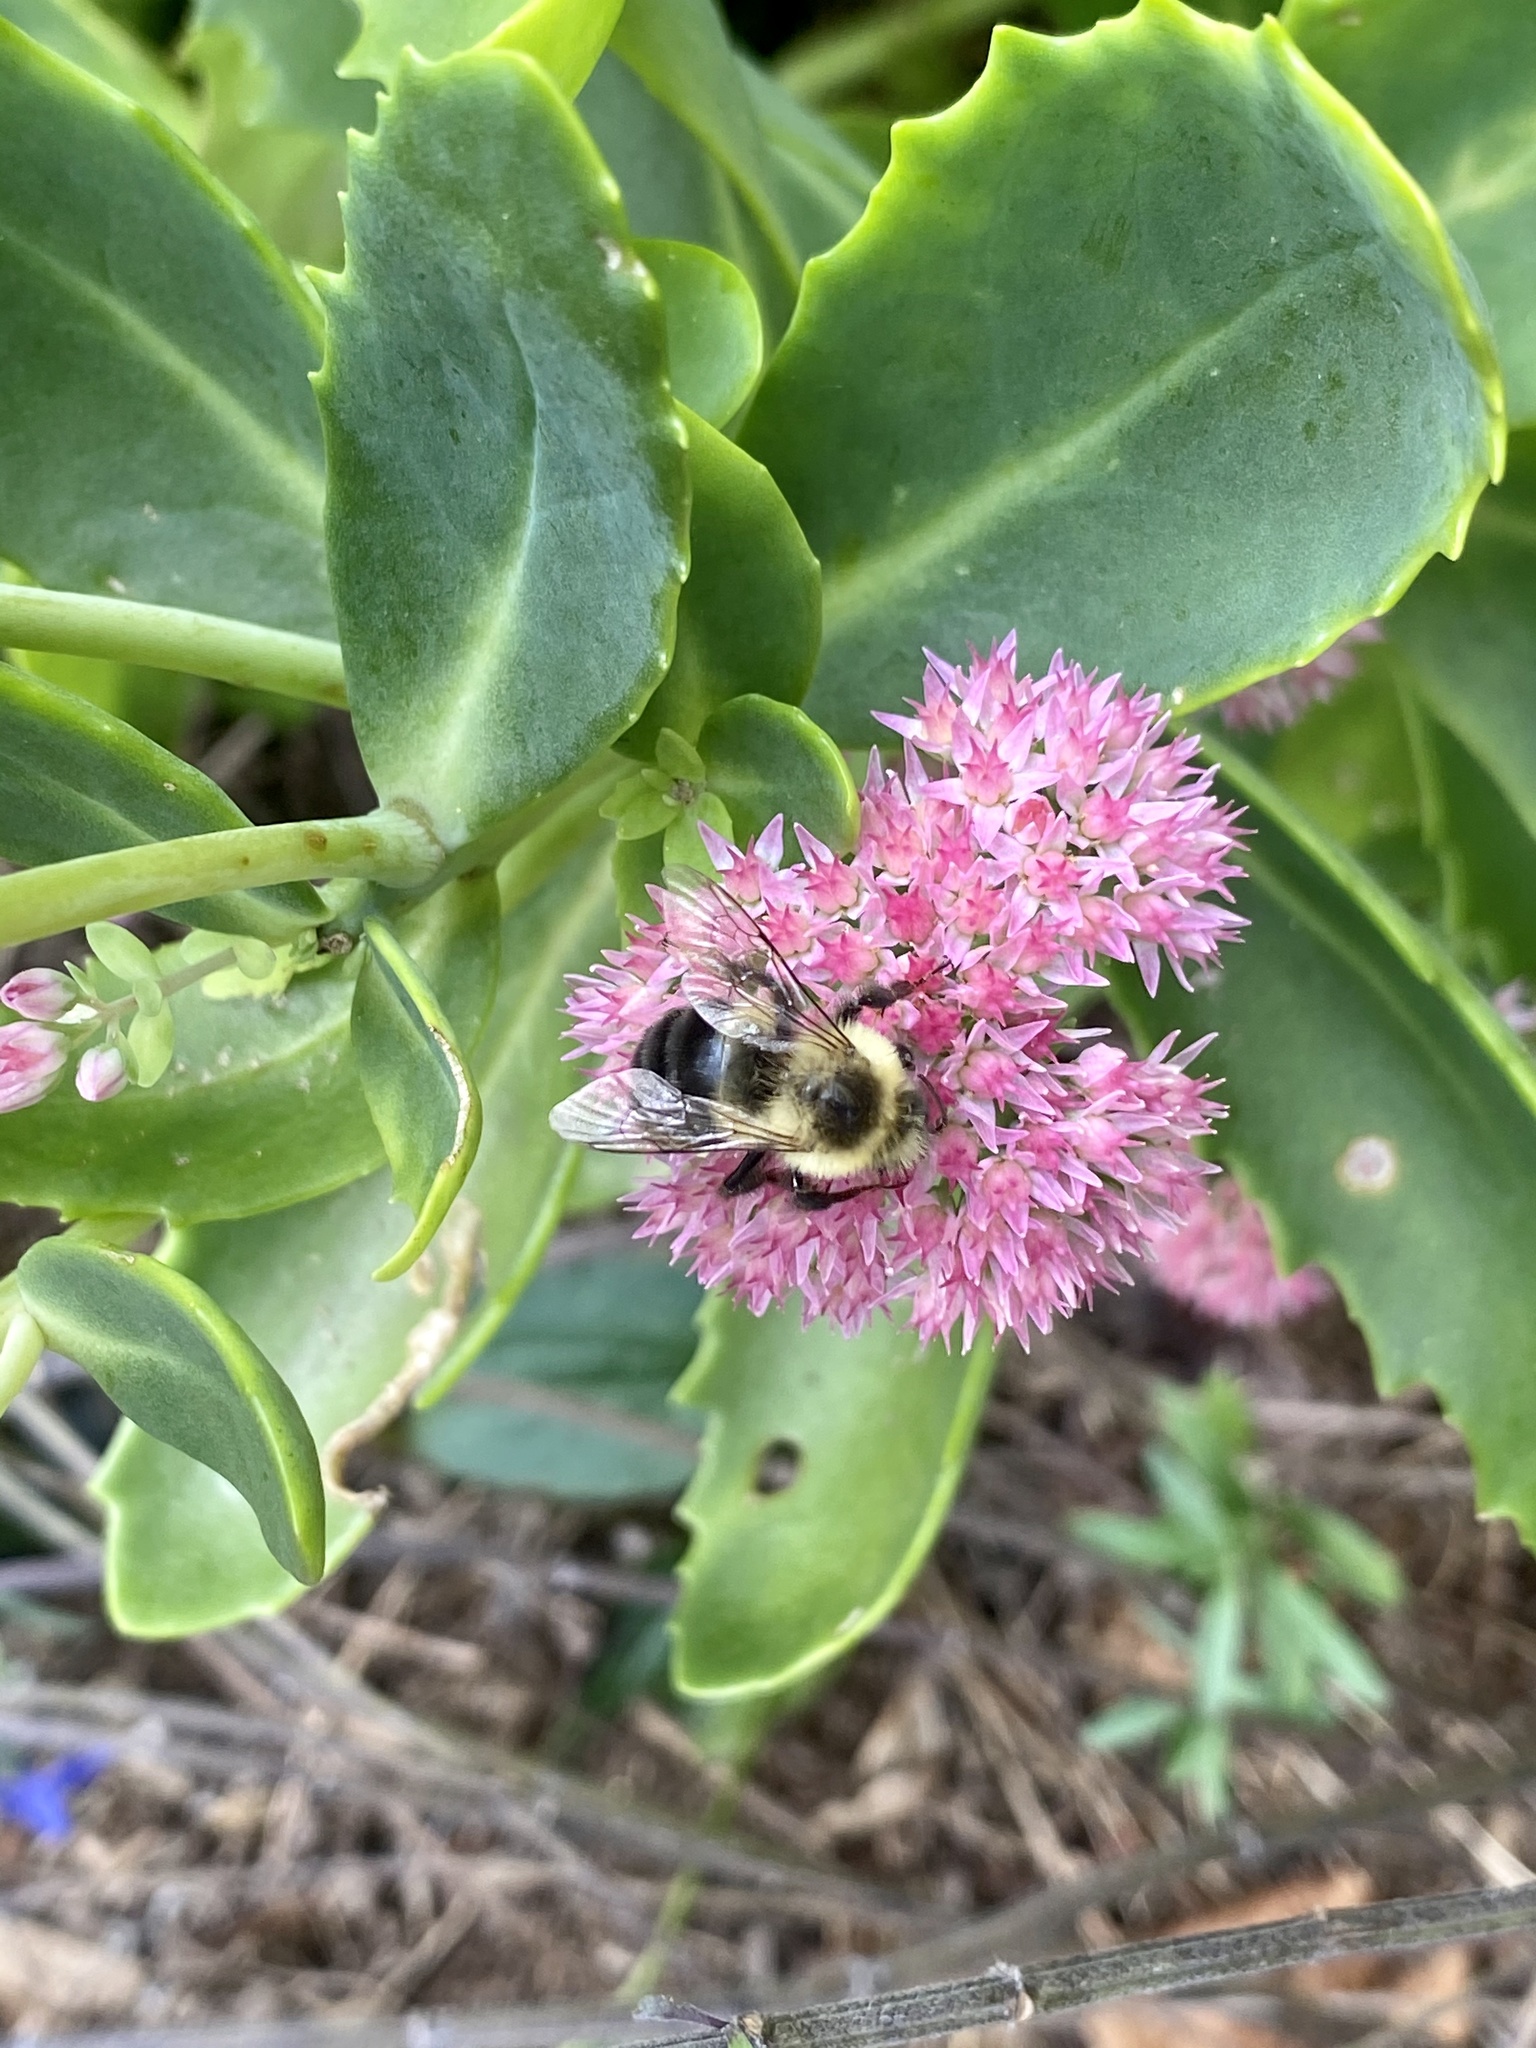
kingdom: Animalia
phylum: Arthropoda
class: Insecta
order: Hymenoptera
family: Apidae
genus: Bombus
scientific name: Bombus impatiens
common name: Common eastern bumble bee
